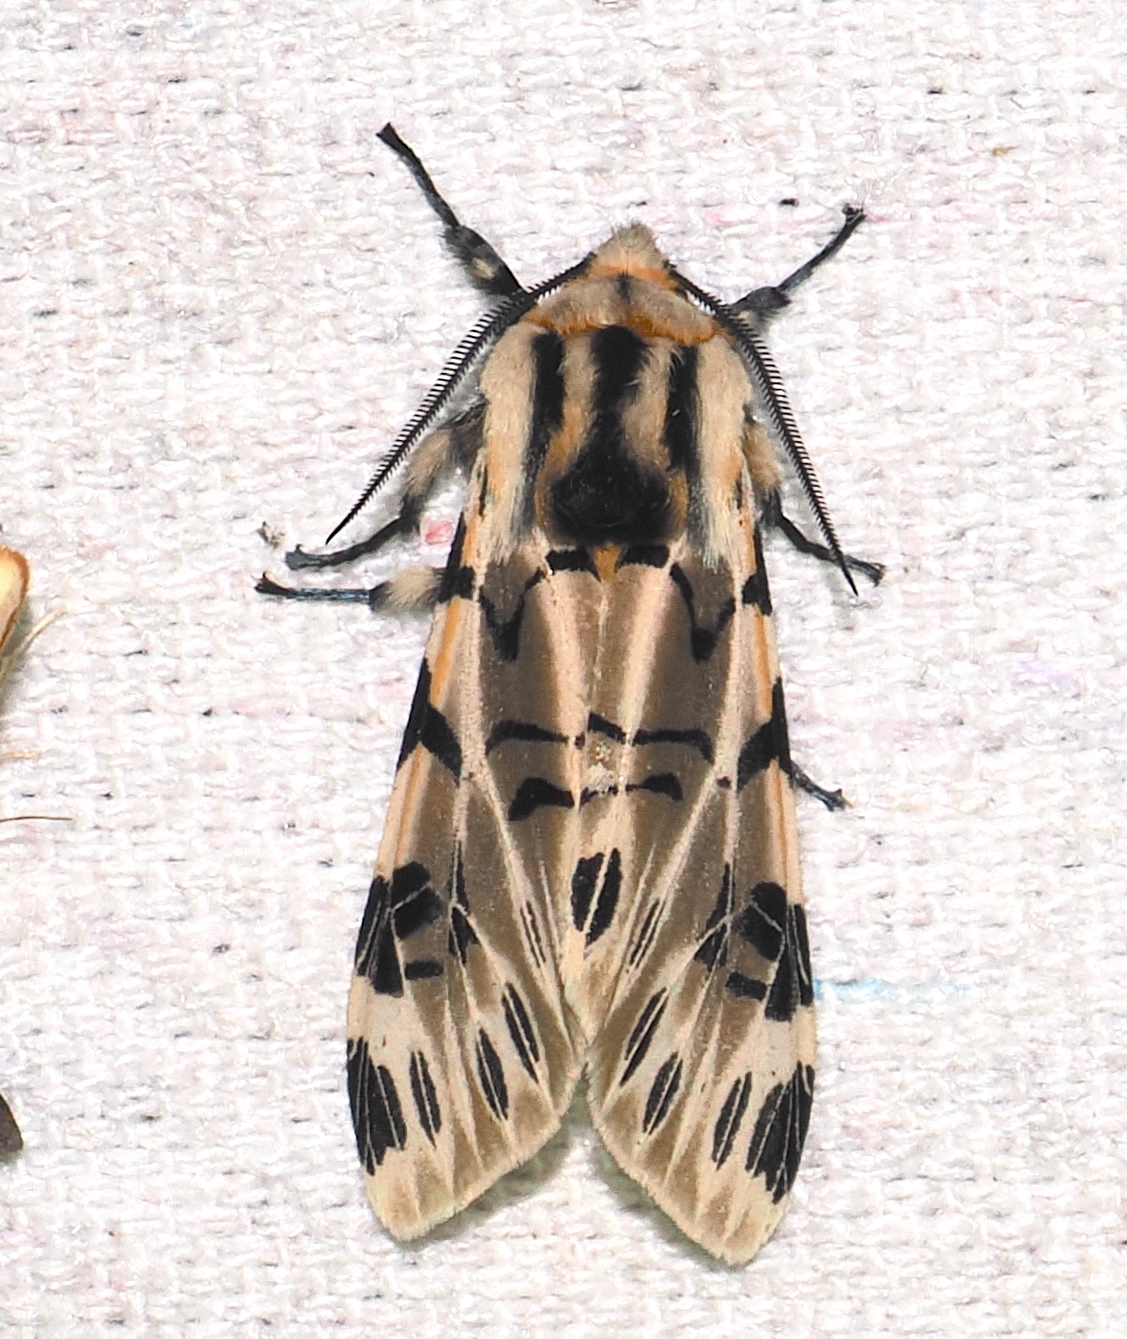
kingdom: Animalia
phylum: Arthropoda
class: Insecta
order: Lepidoptera
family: Erebidae
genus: Hypercompe
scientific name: Hypercompe neurophylla
